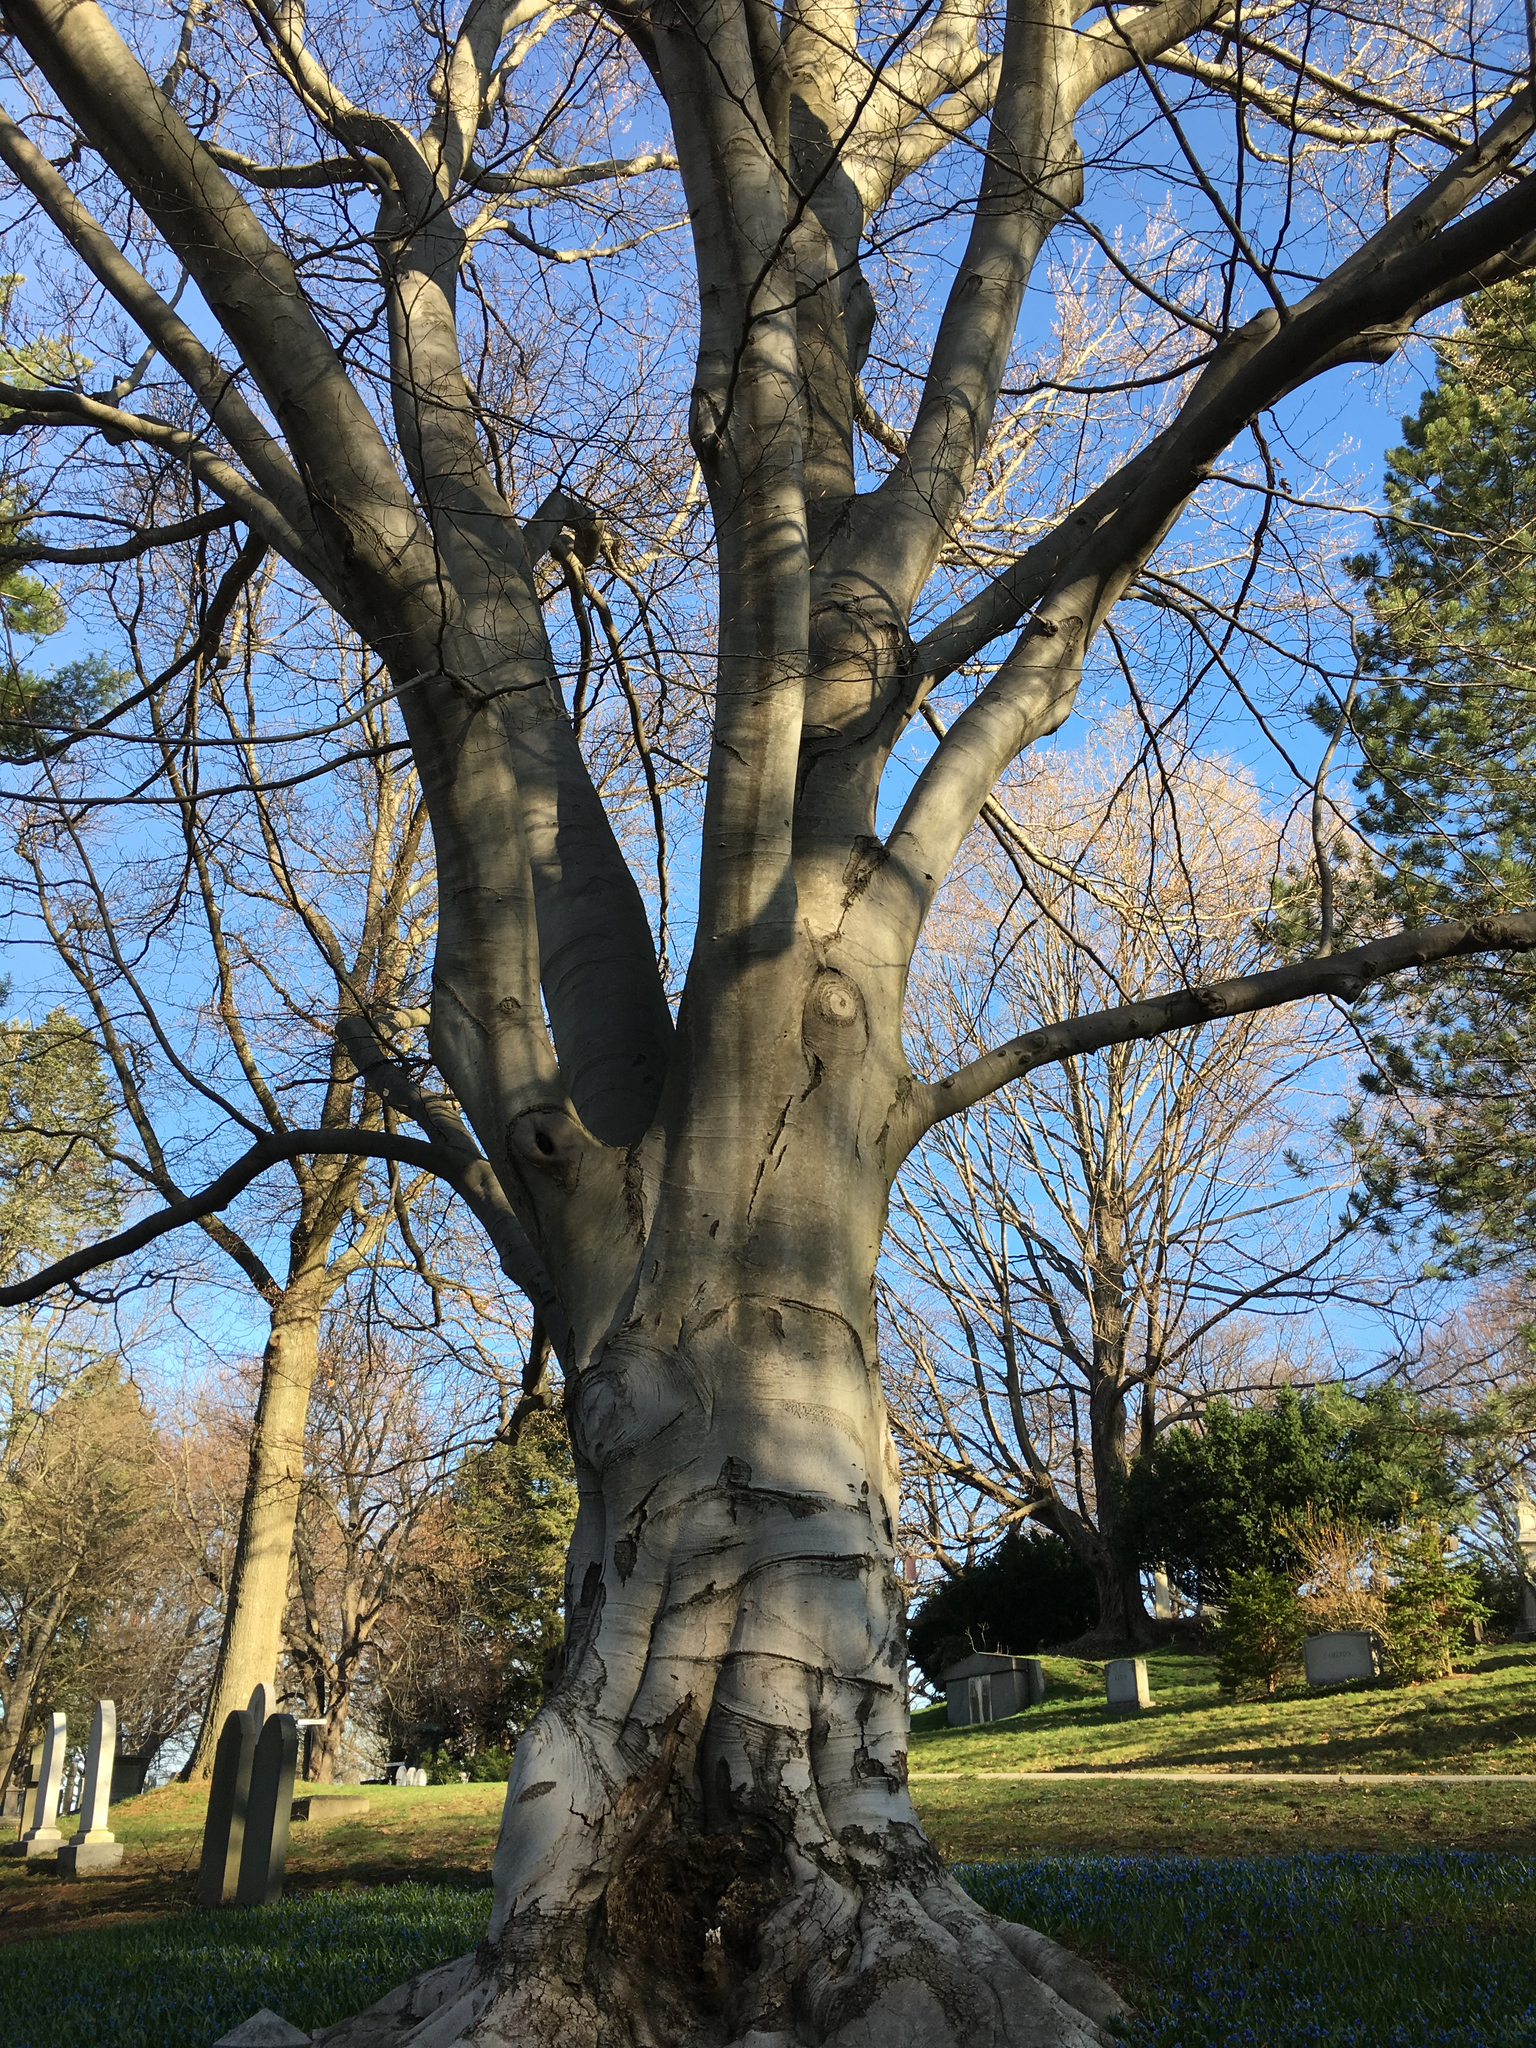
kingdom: Plantae
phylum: Tracheophyta
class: Magnoliopsida
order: Fagales
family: Fagaceae
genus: Fagus
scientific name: Fagus grandifolia
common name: American beech
